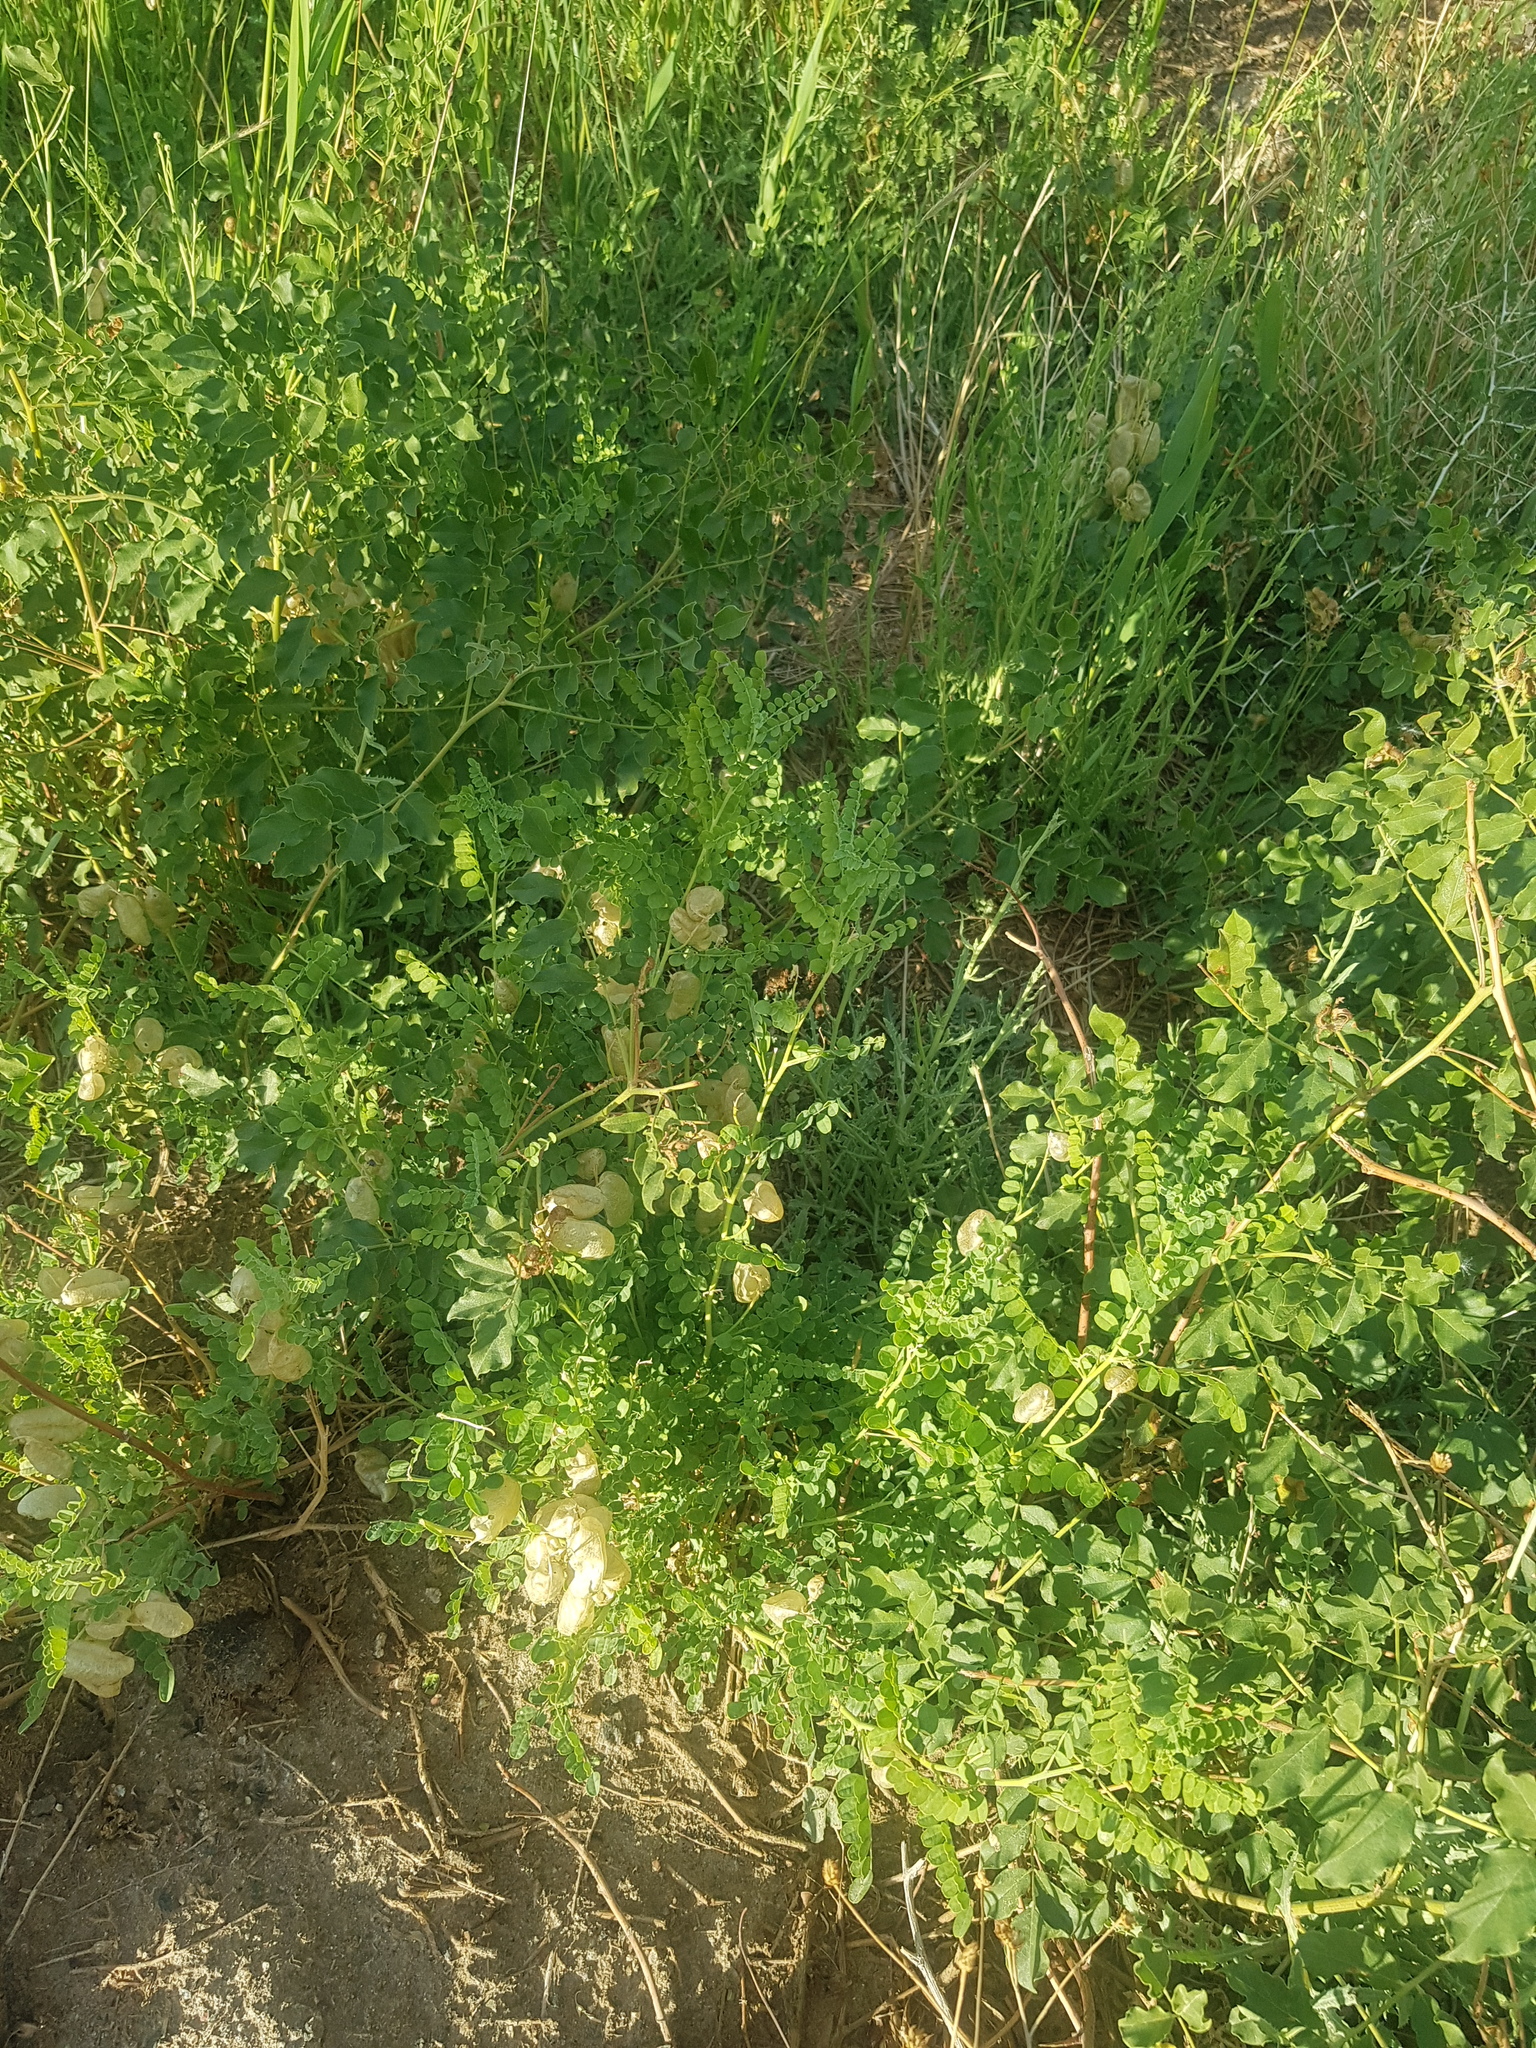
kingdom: Plantae
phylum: Tracheophyta
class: Magnoliopsida
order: Fabales
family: Fabaceae
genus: Sphaerophysa
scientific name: Sphaerophysa salsula
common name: Alkali swainsonpea
